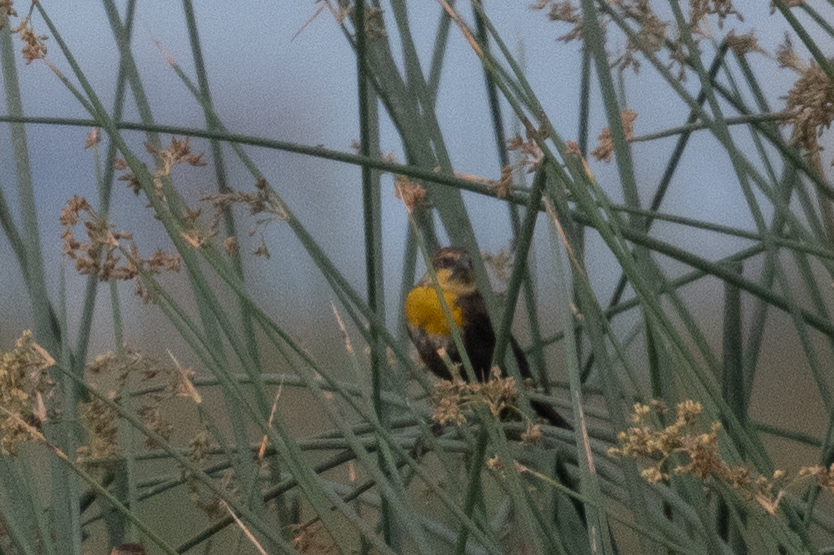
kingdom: Animalia
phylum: Chordata
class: Aves
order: Passeriformes
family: Icteridae
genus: Xanthocephalus
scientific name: Xanthocephalus xanthocephalus
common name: Yellow-headed blackbird
